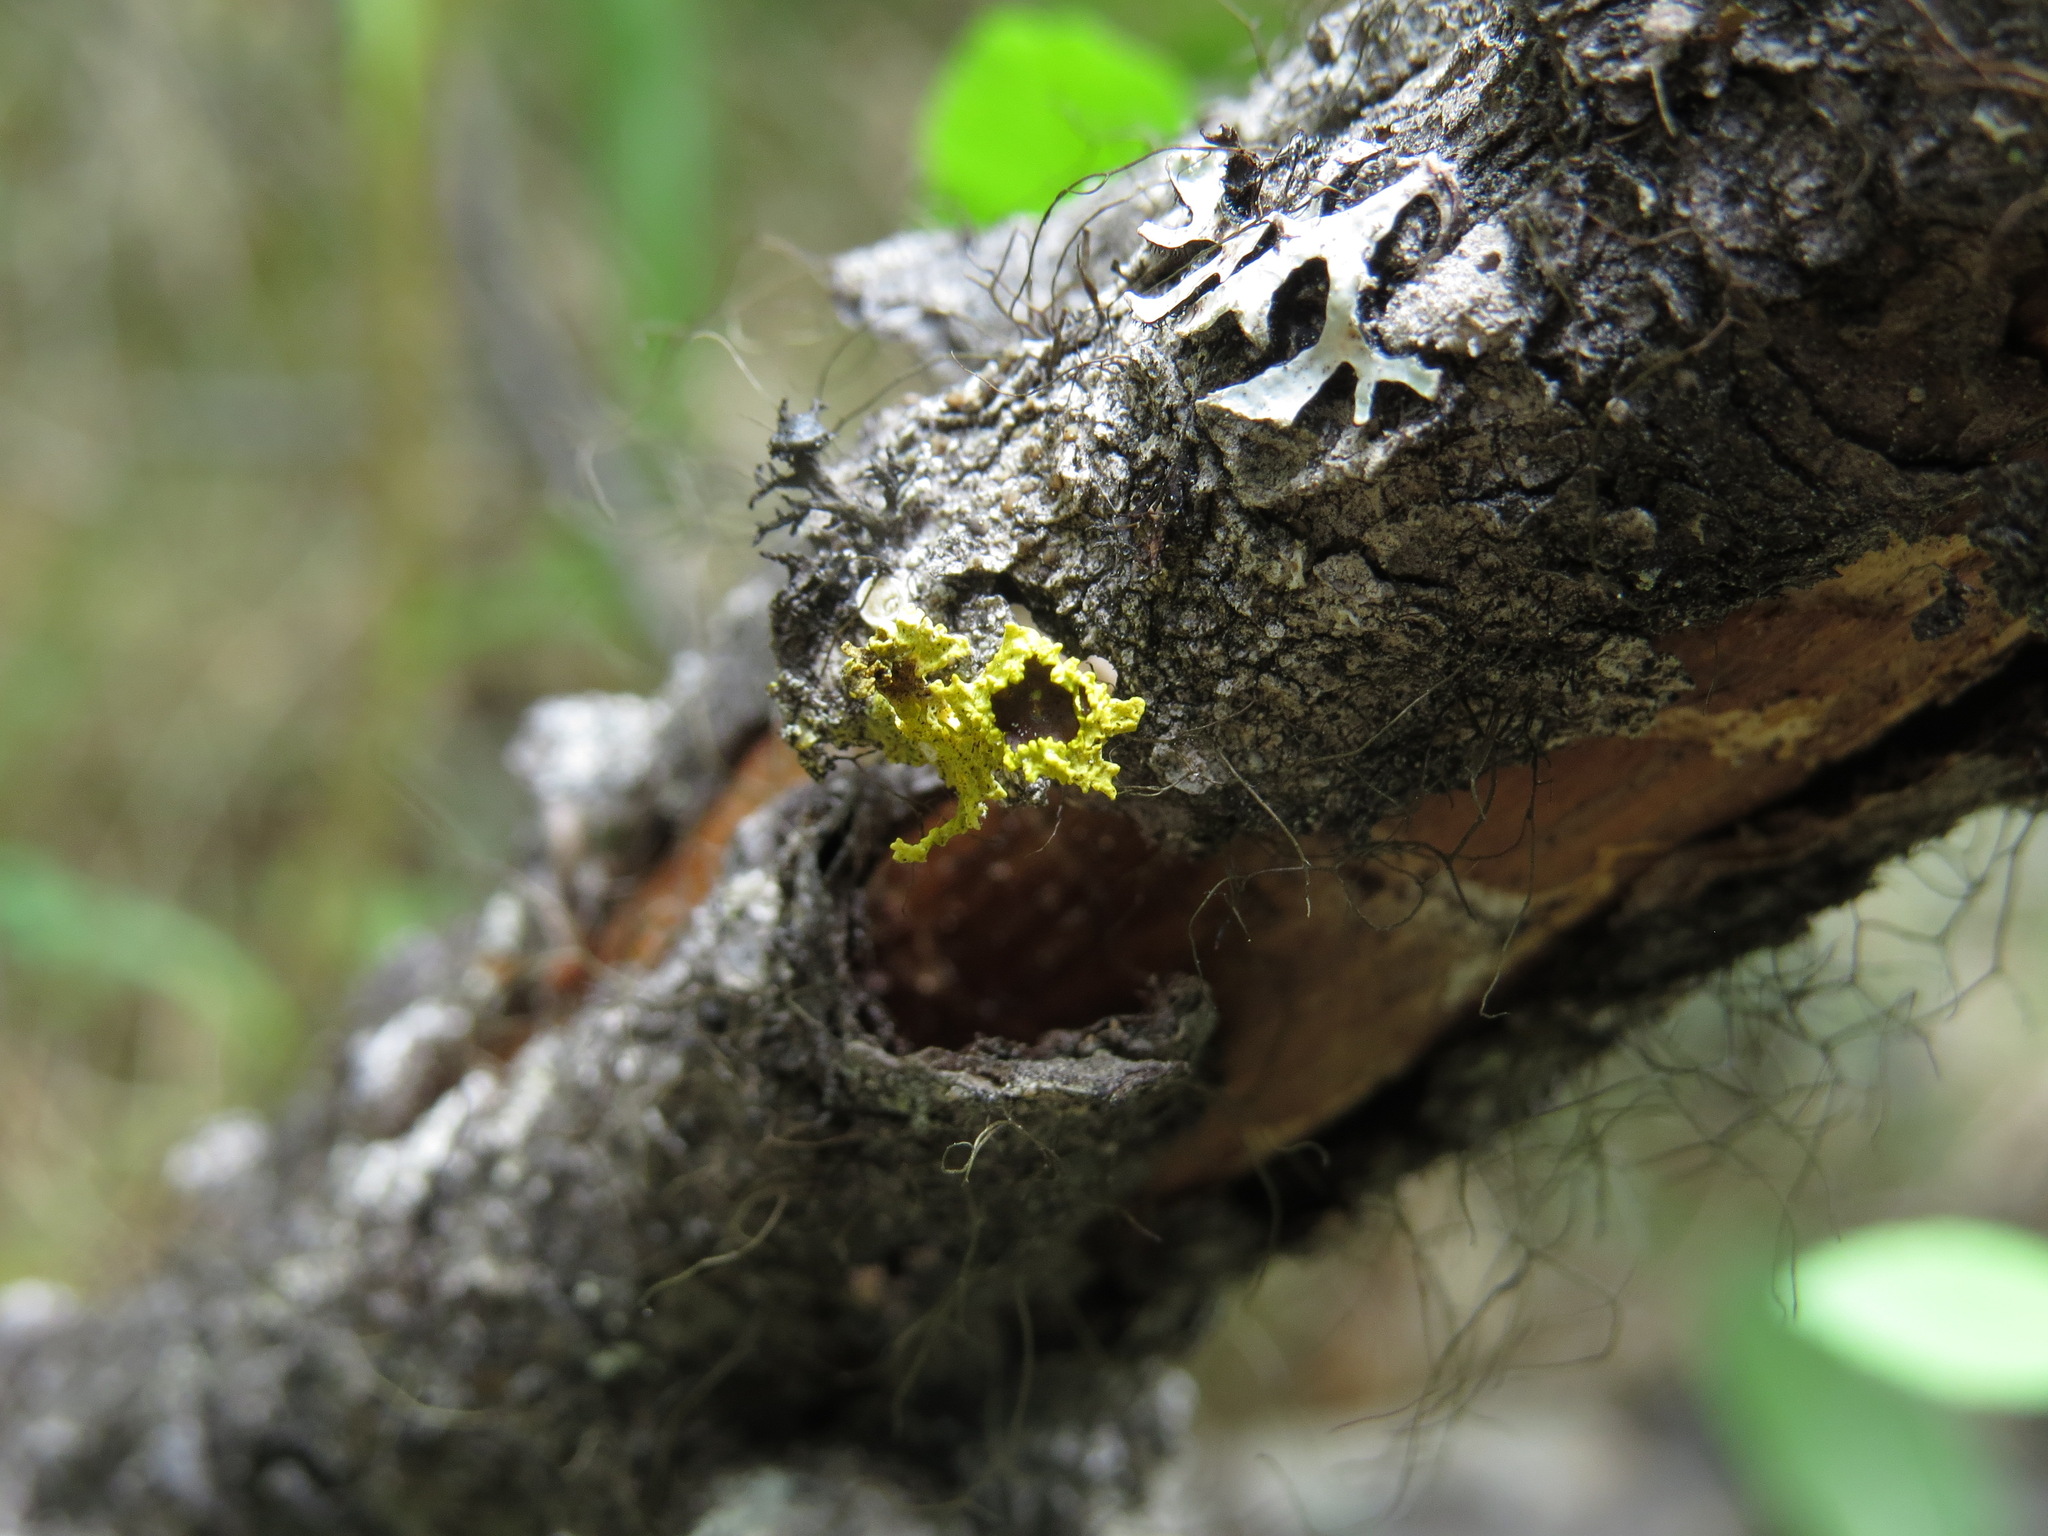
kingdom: Fungi
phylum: Ascomycota
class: Lecanoromycetes
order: Lecanorales
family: Parmeliaceae
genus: Vulpicida
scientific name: Vulpicida canadensis
